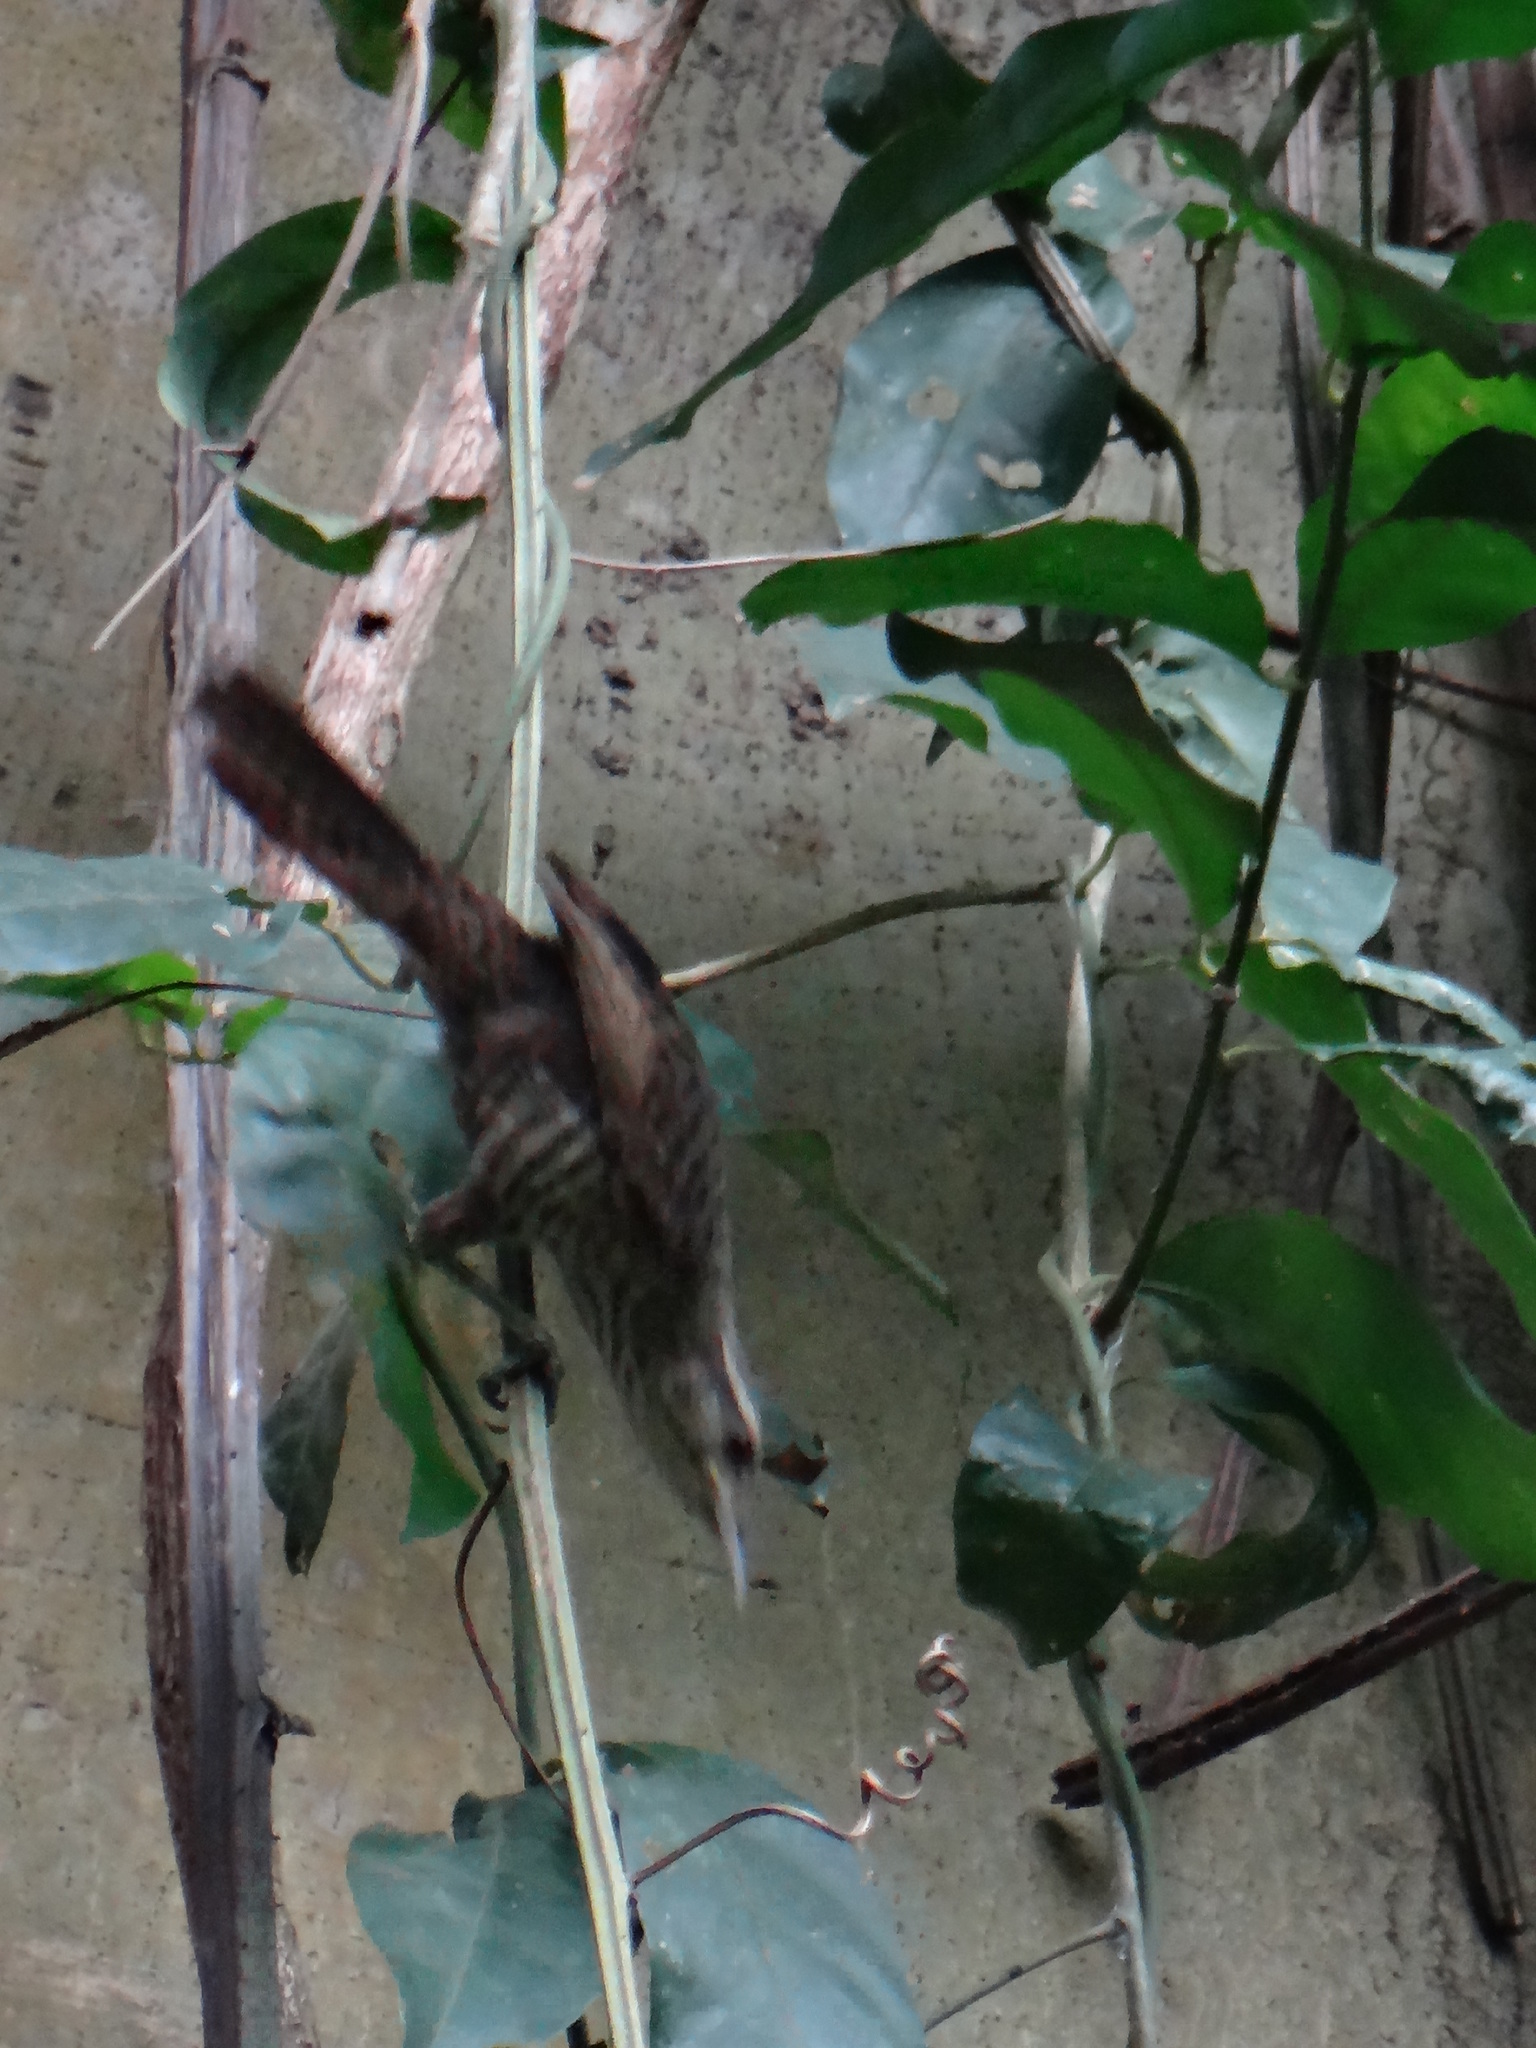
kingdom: Animalia
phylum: Chordata
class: Aves
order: Passeriformes
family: Troglodytidae
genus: Campylorhynchus
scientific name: Campylorhynchus turdinus
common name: Thrush-like wren
